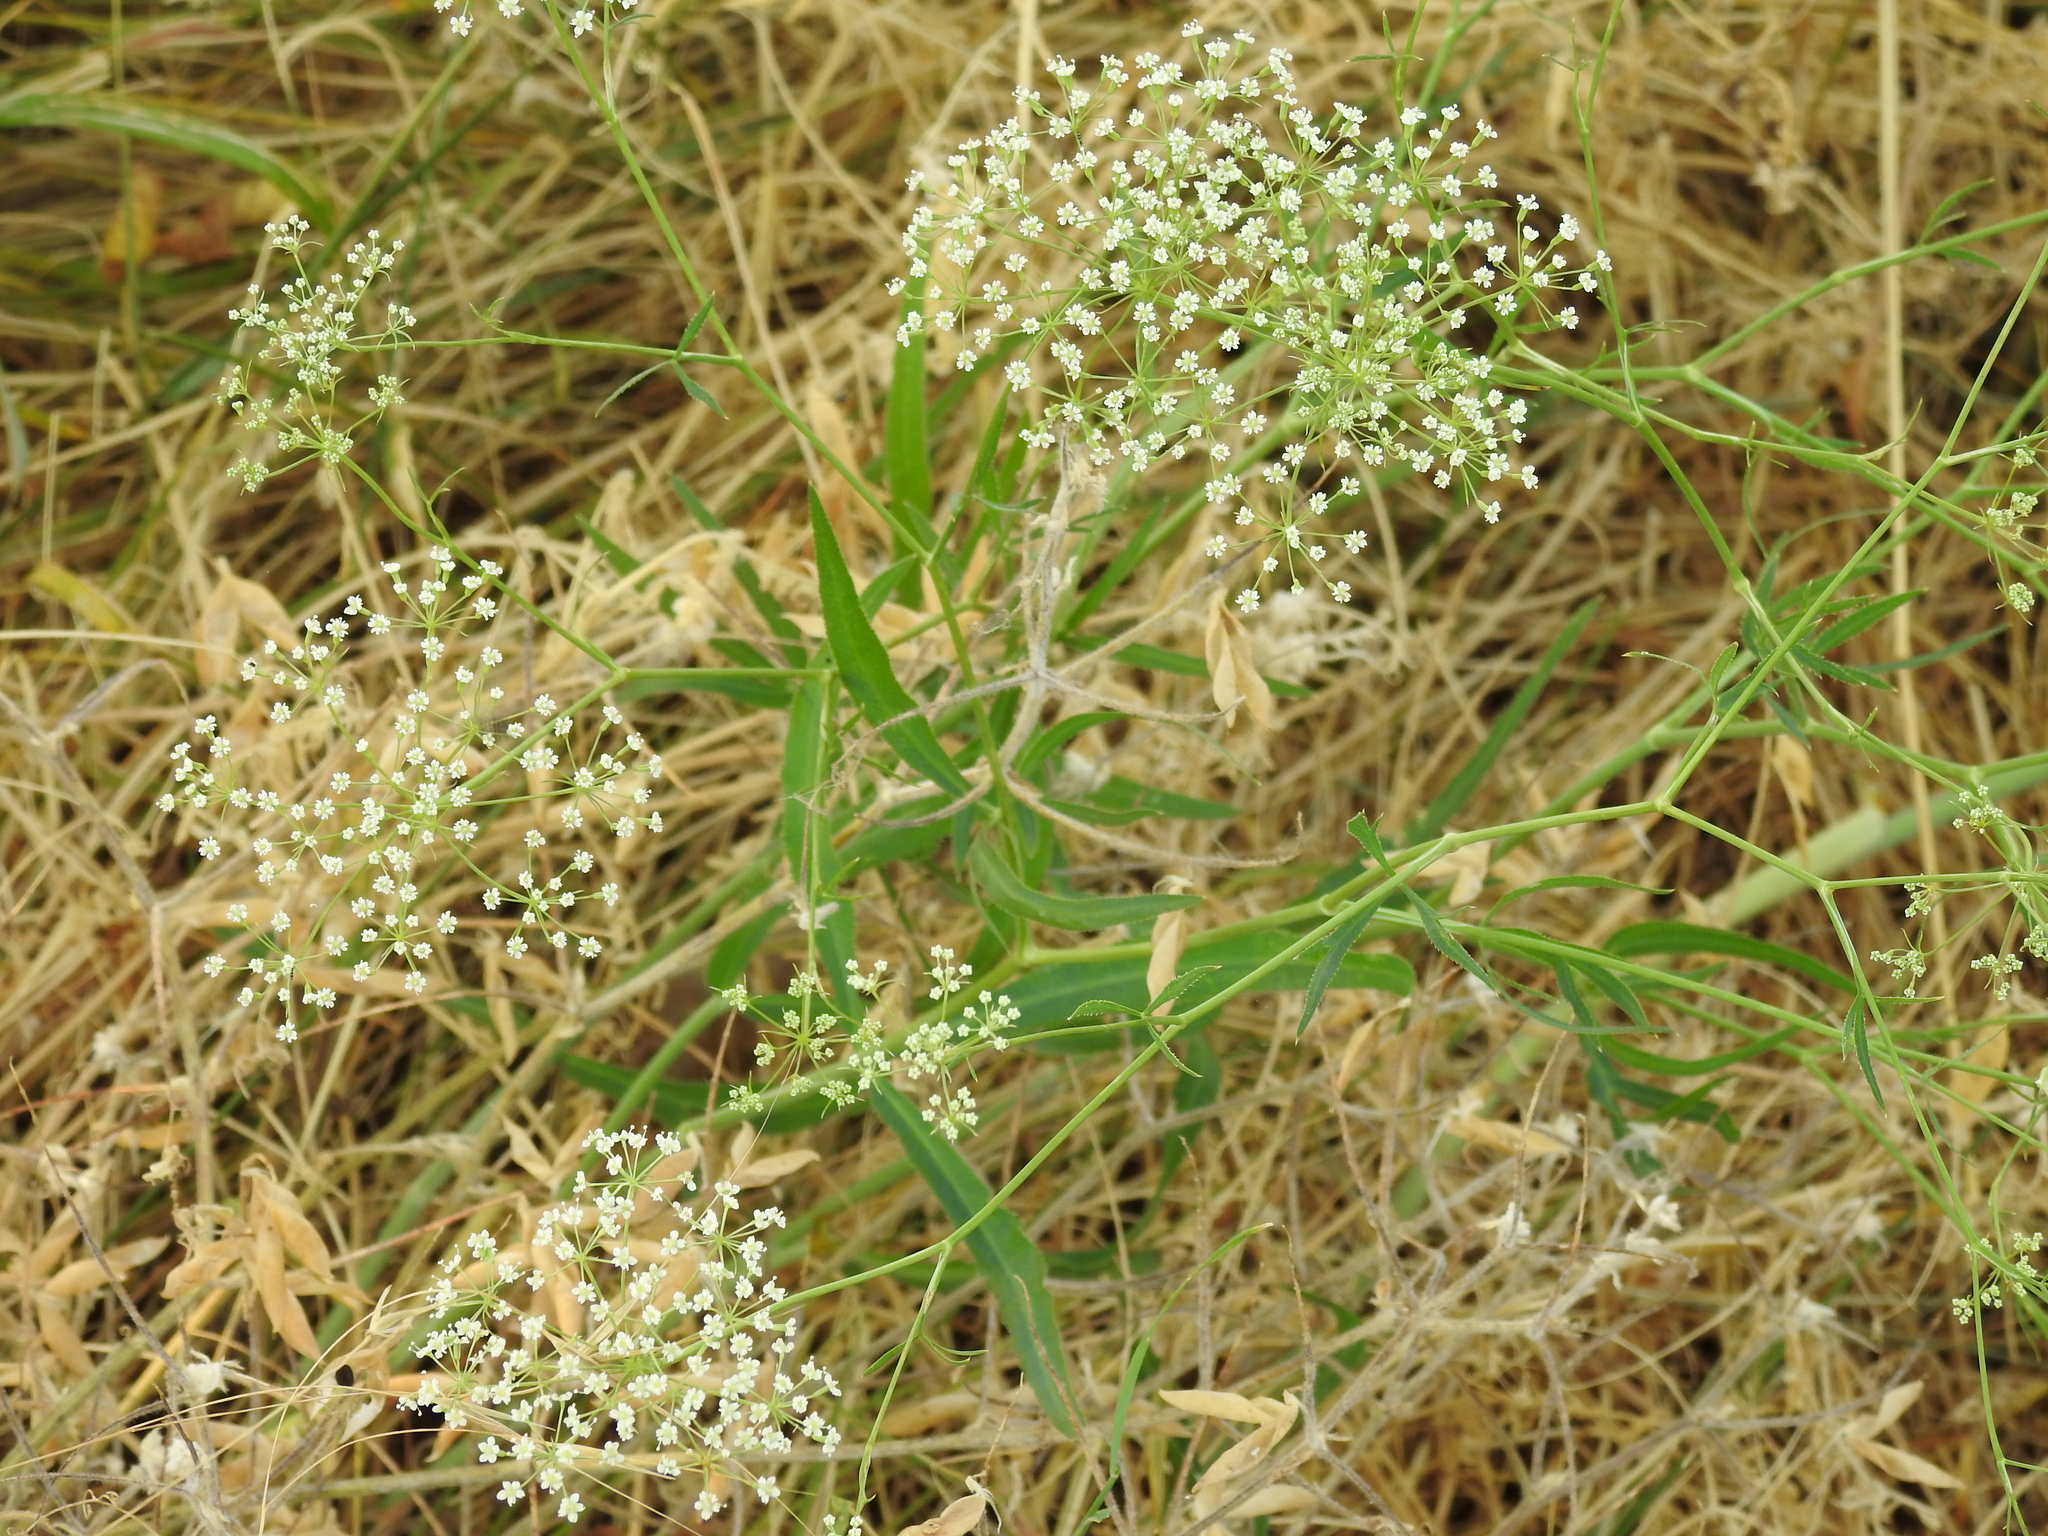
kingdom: Plantae
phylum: Tracheophyta
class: Magnoliopsida
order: Apiales
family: Apiaceae
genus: Falcaria
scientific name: Falcaria vulgaris
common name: Longleaf
